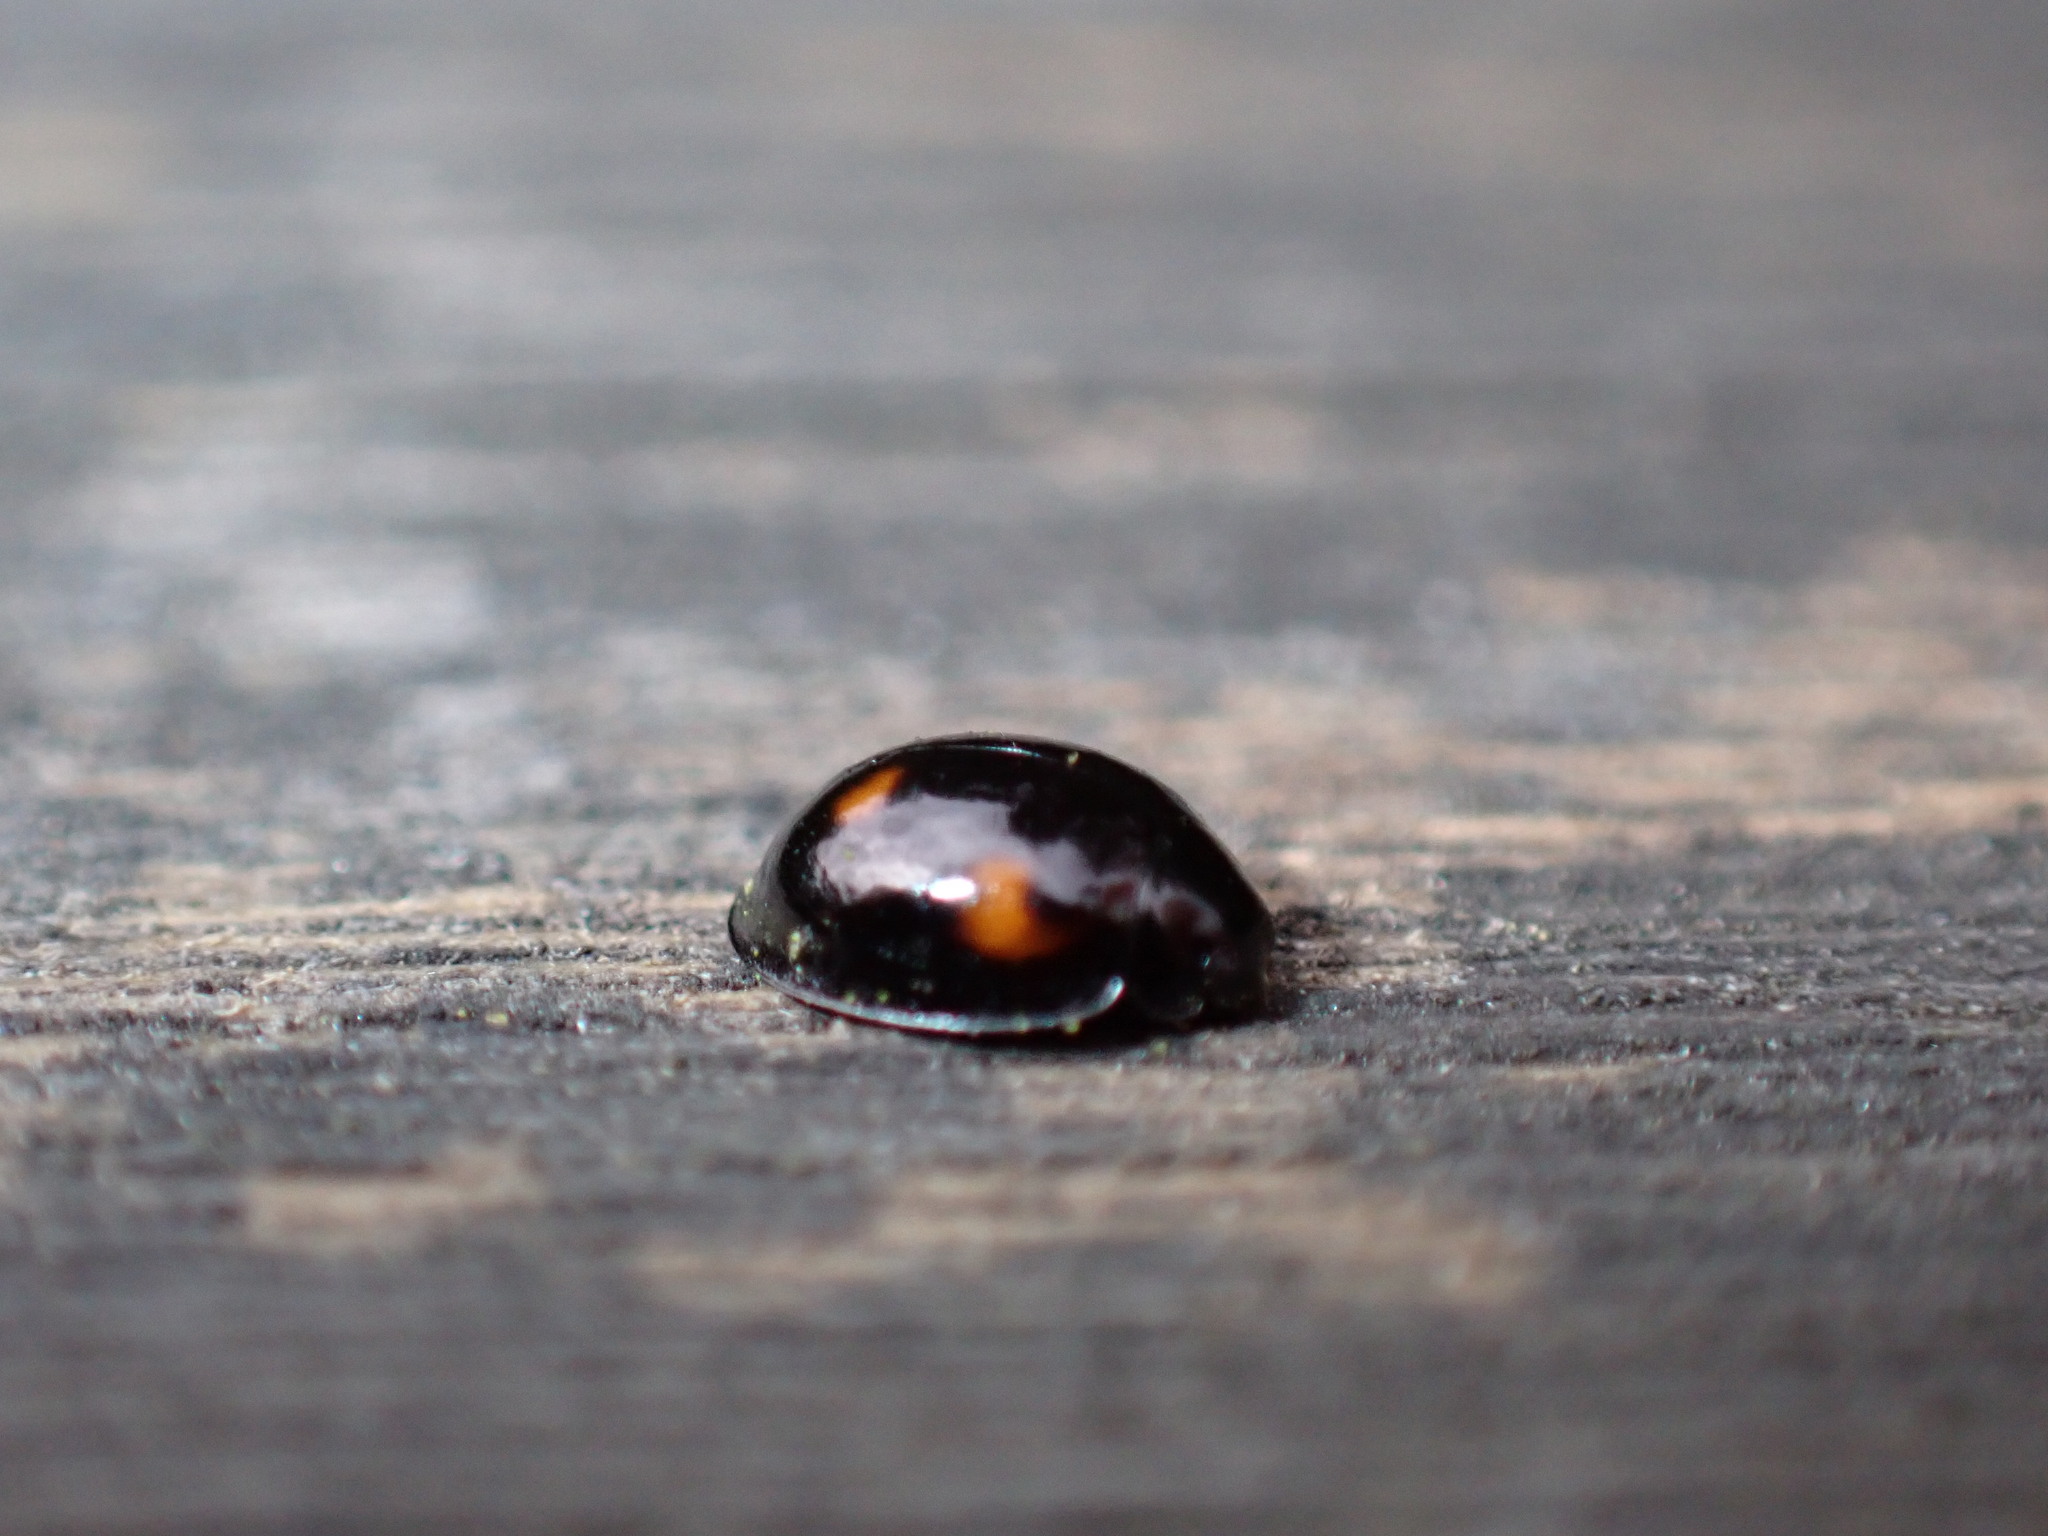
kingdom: Animalia
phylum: Arthropoda
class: Insecta
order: Coleoptera
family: Coccinellidae
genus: Brumus
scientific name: Brumus quadripustulatus
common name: Ladybird beetle
